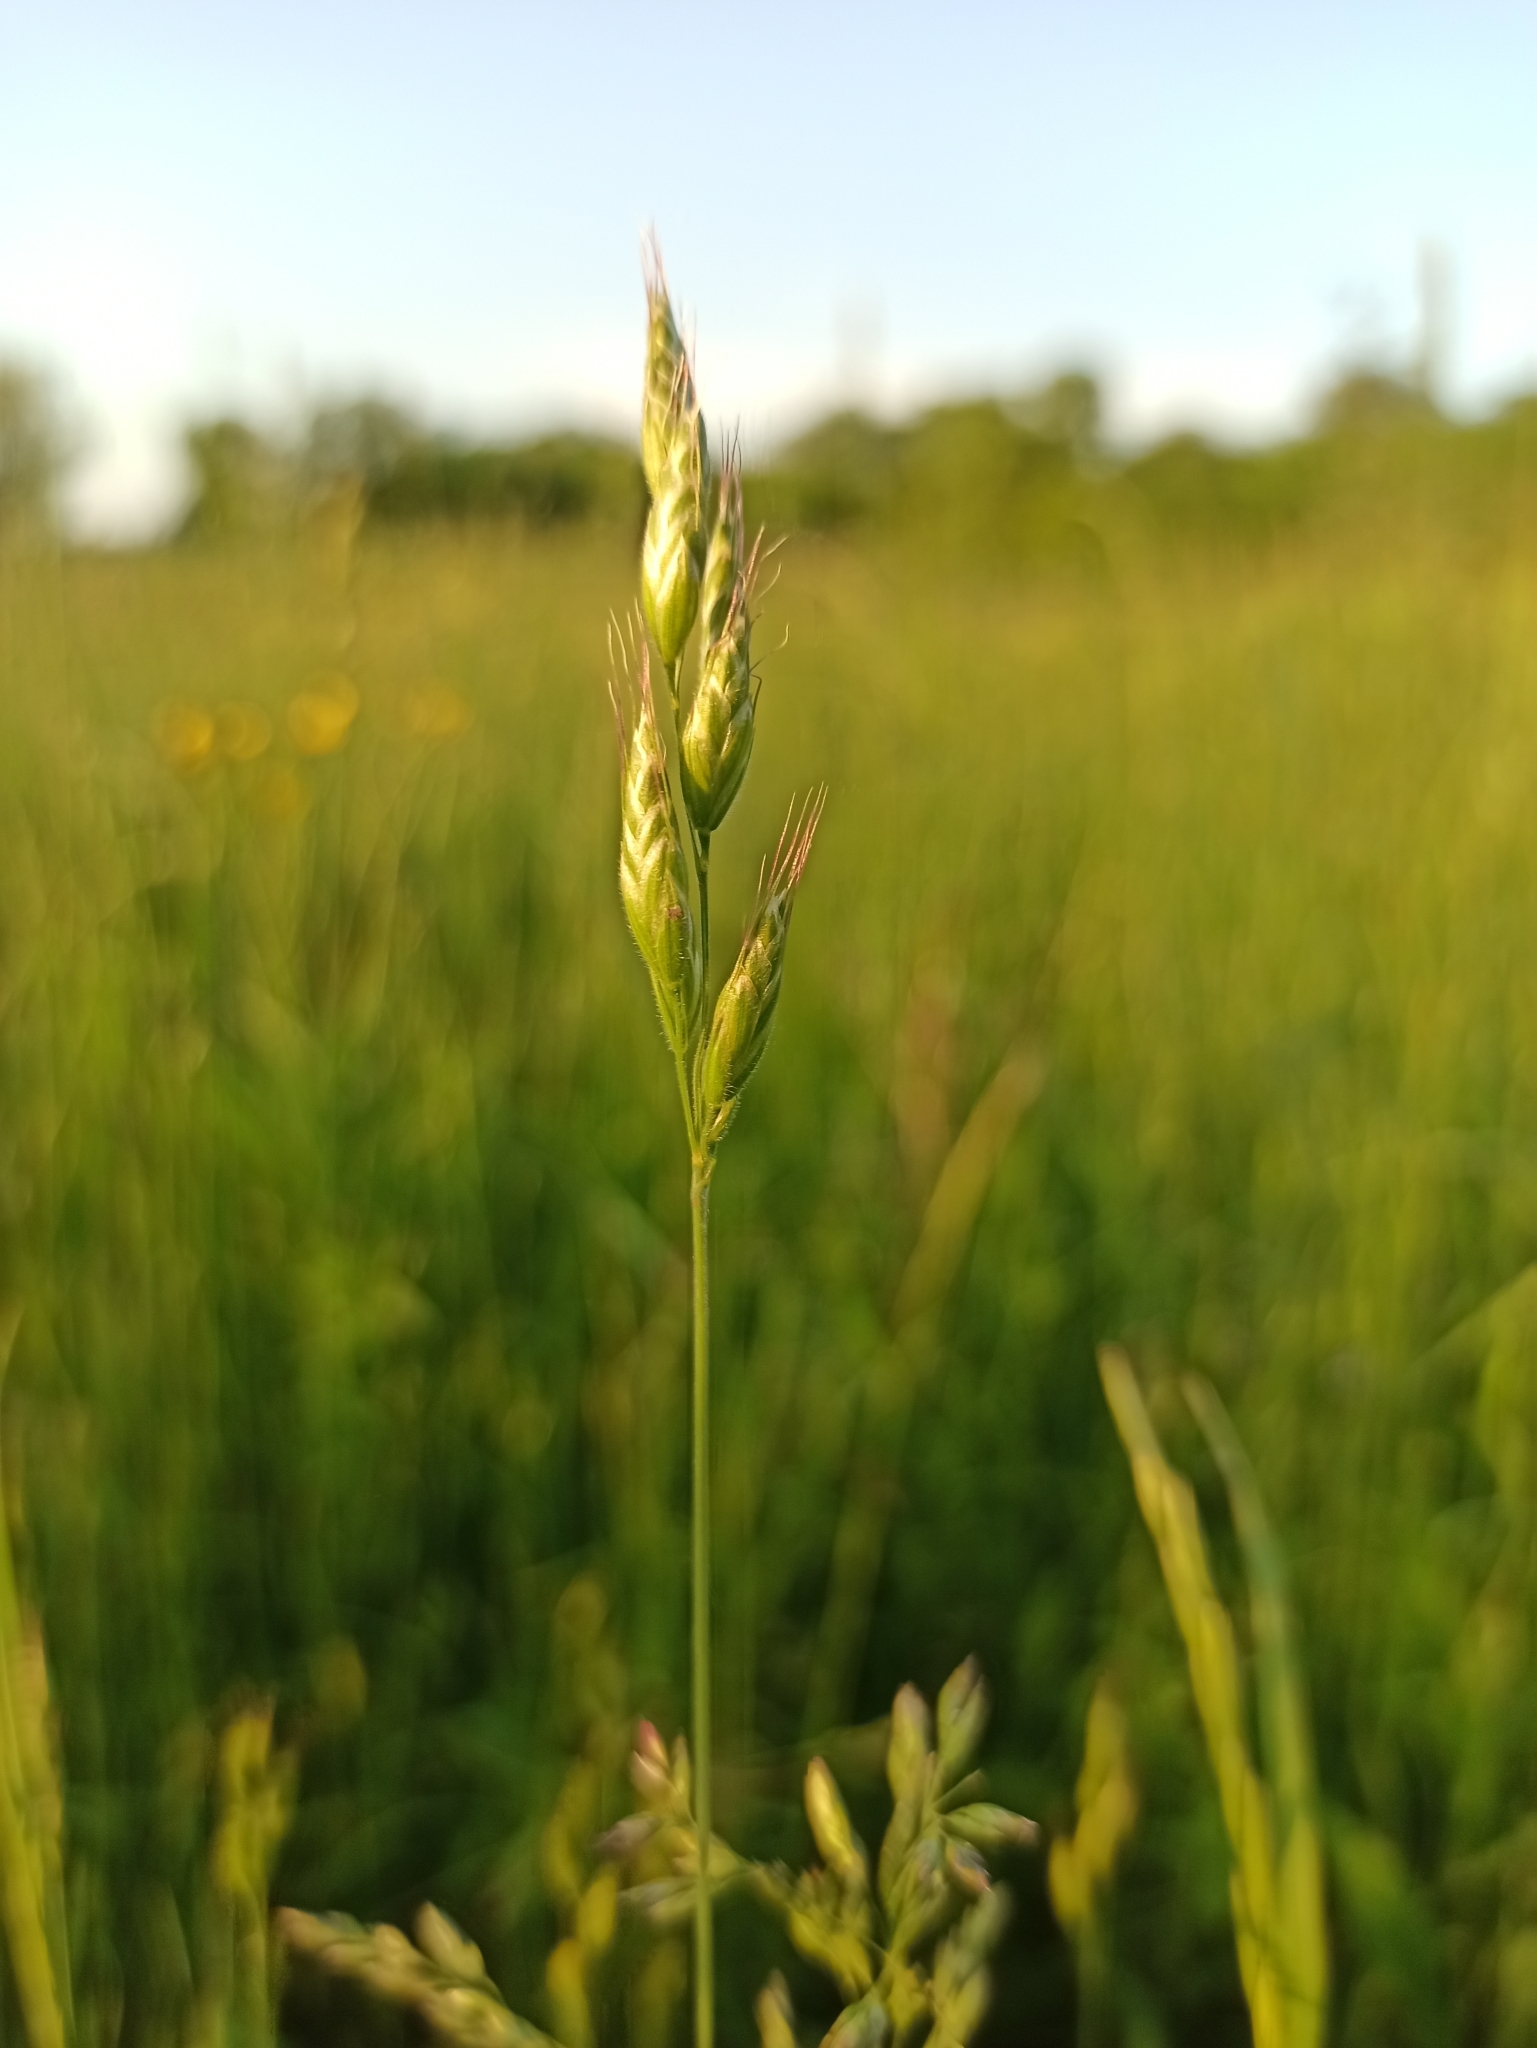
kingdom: Plantae
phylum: Tracheophyta
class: Liliopsida
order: Poales
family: Poaceae
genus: Bromus
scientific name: Bromus hordeaceus
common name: Soft brome
